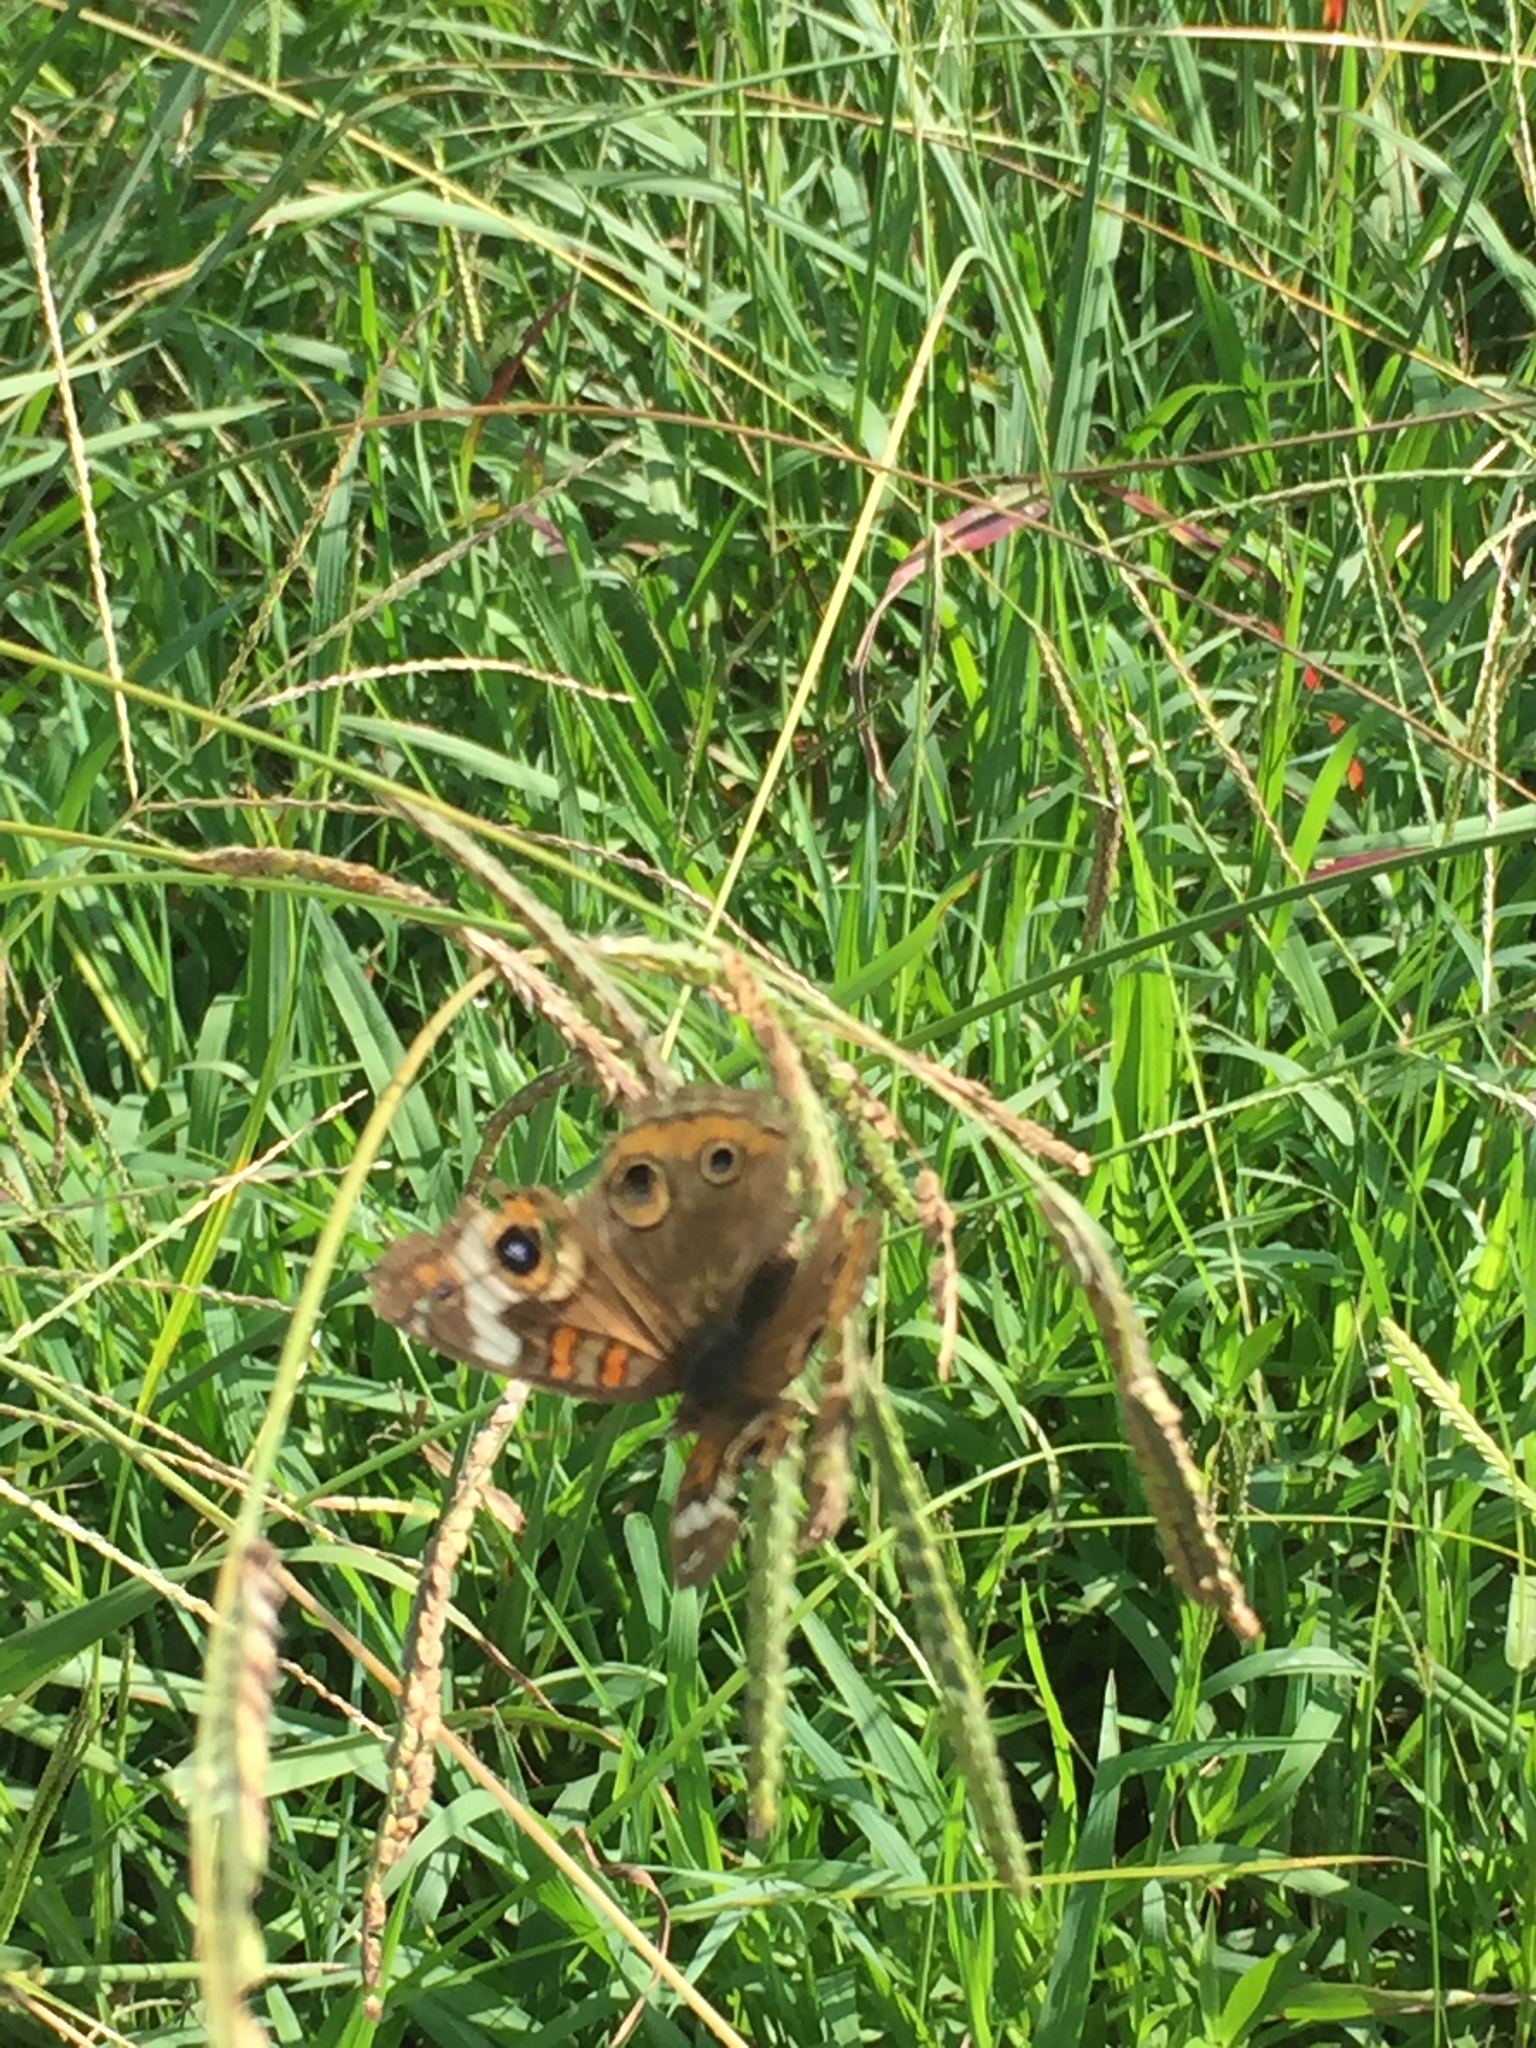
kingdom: Animalia
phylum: Arthropoda
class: Insecta
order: Lepidoptera
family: Nymphalidae
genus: Junonia
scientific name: Junonia coenia
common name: Common buckeye
